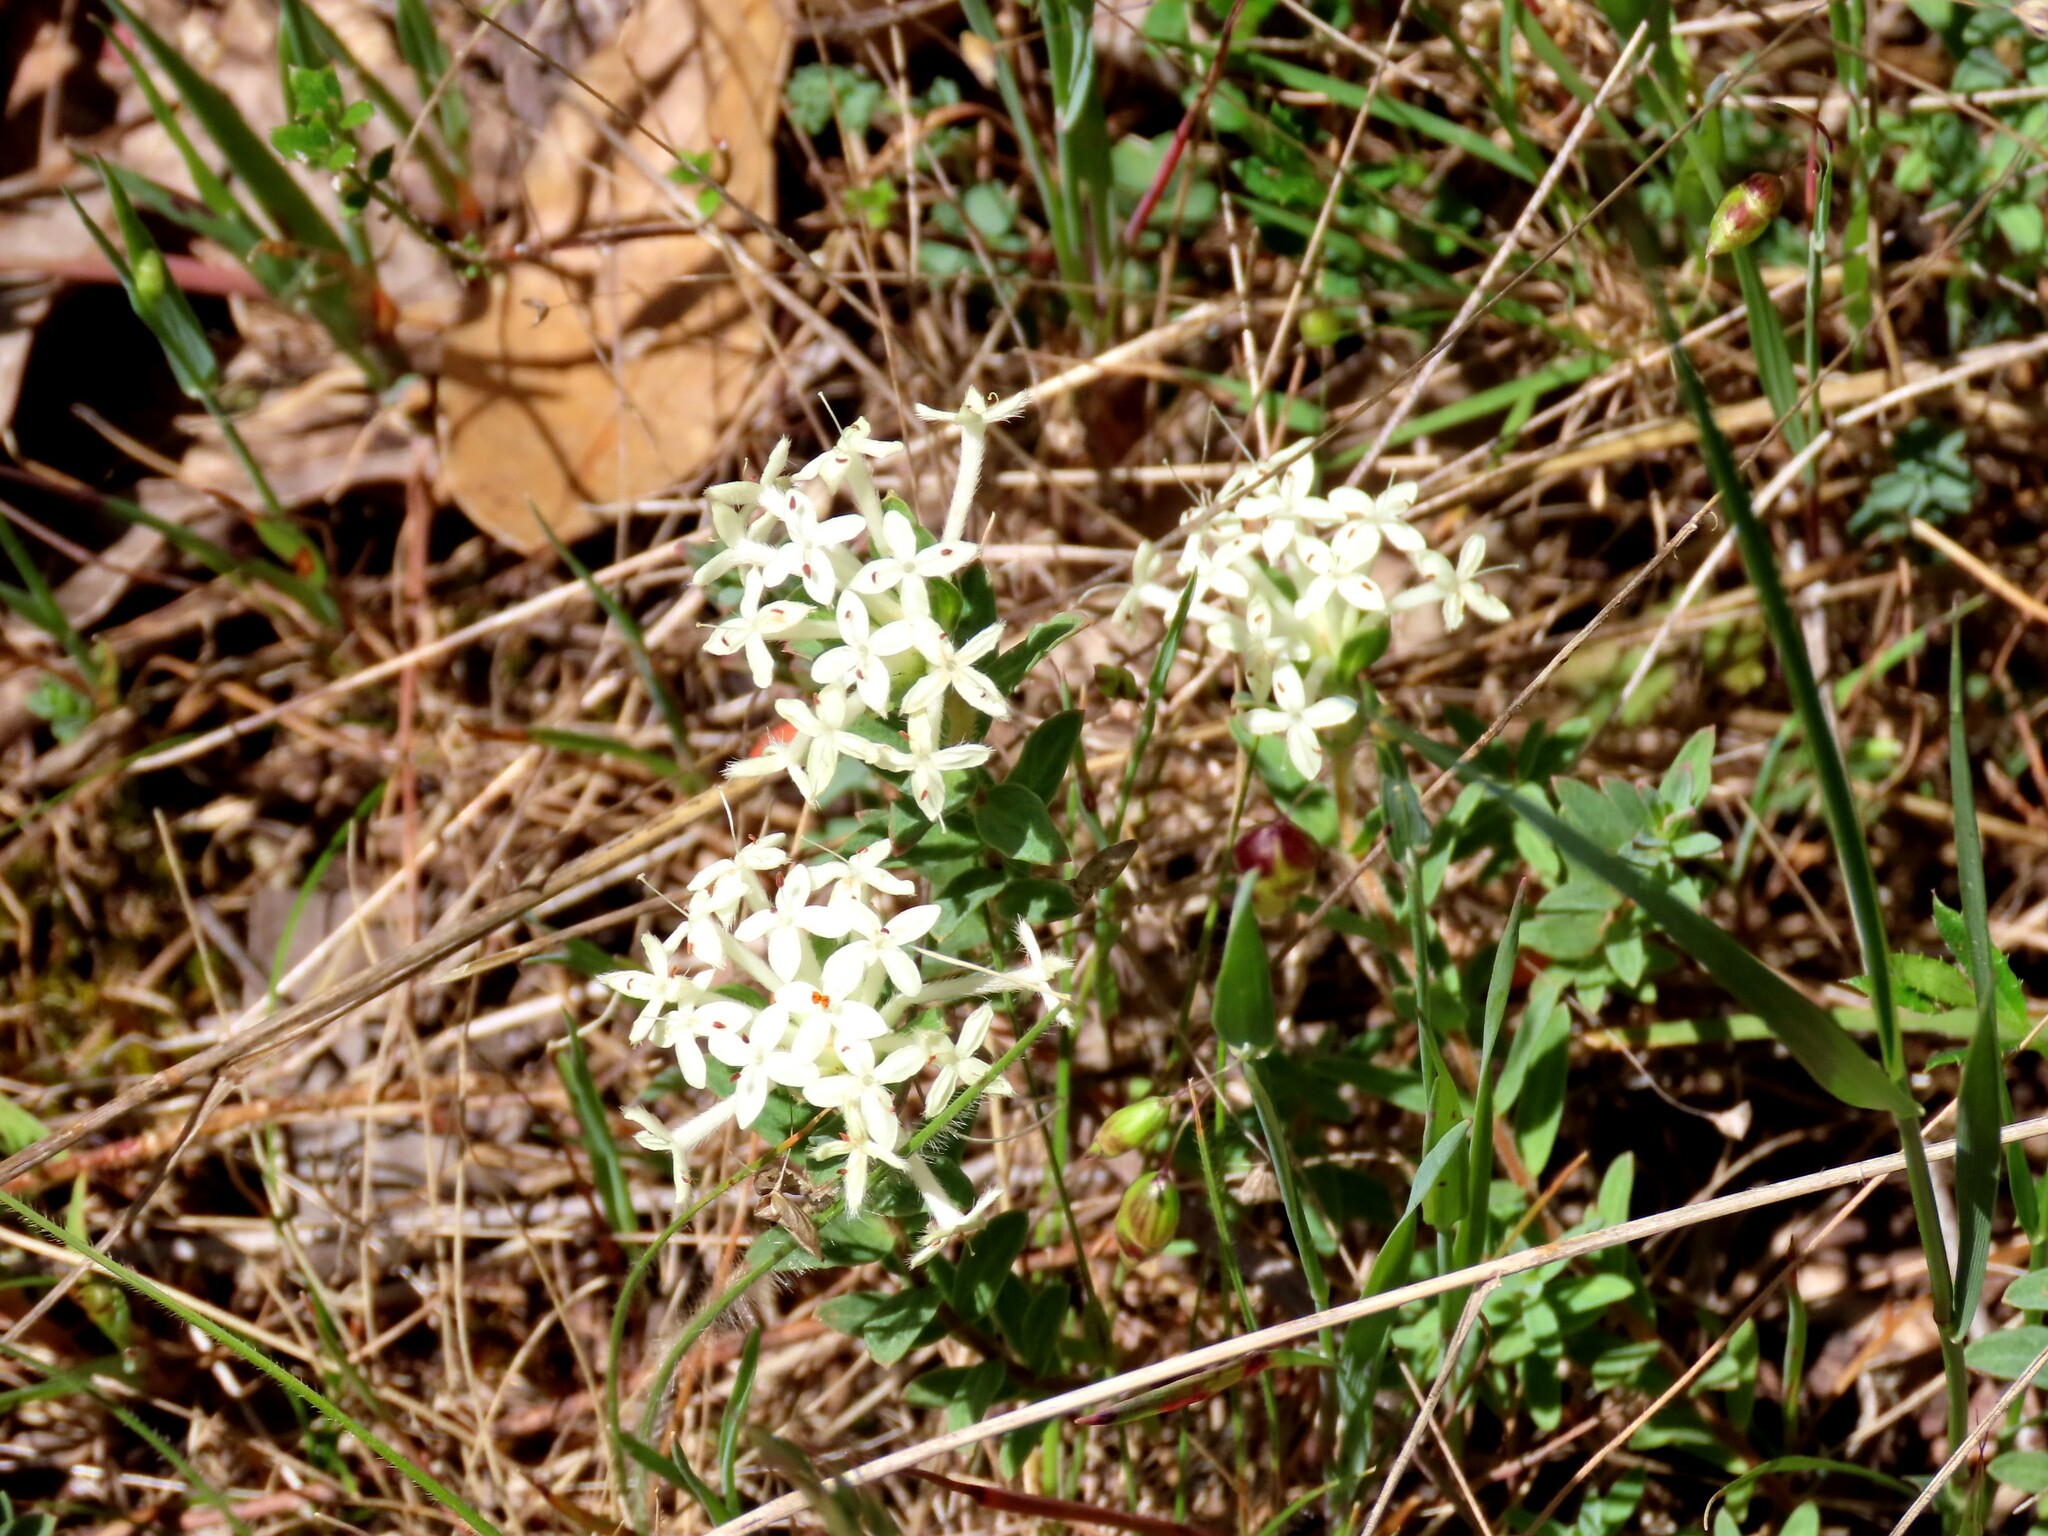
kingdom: Plantae
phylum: Tracheophyta
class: Magnoliopsida
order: Malvales
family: Thymelaeaceae
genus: Pimelea
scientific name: Pimelea humilis
